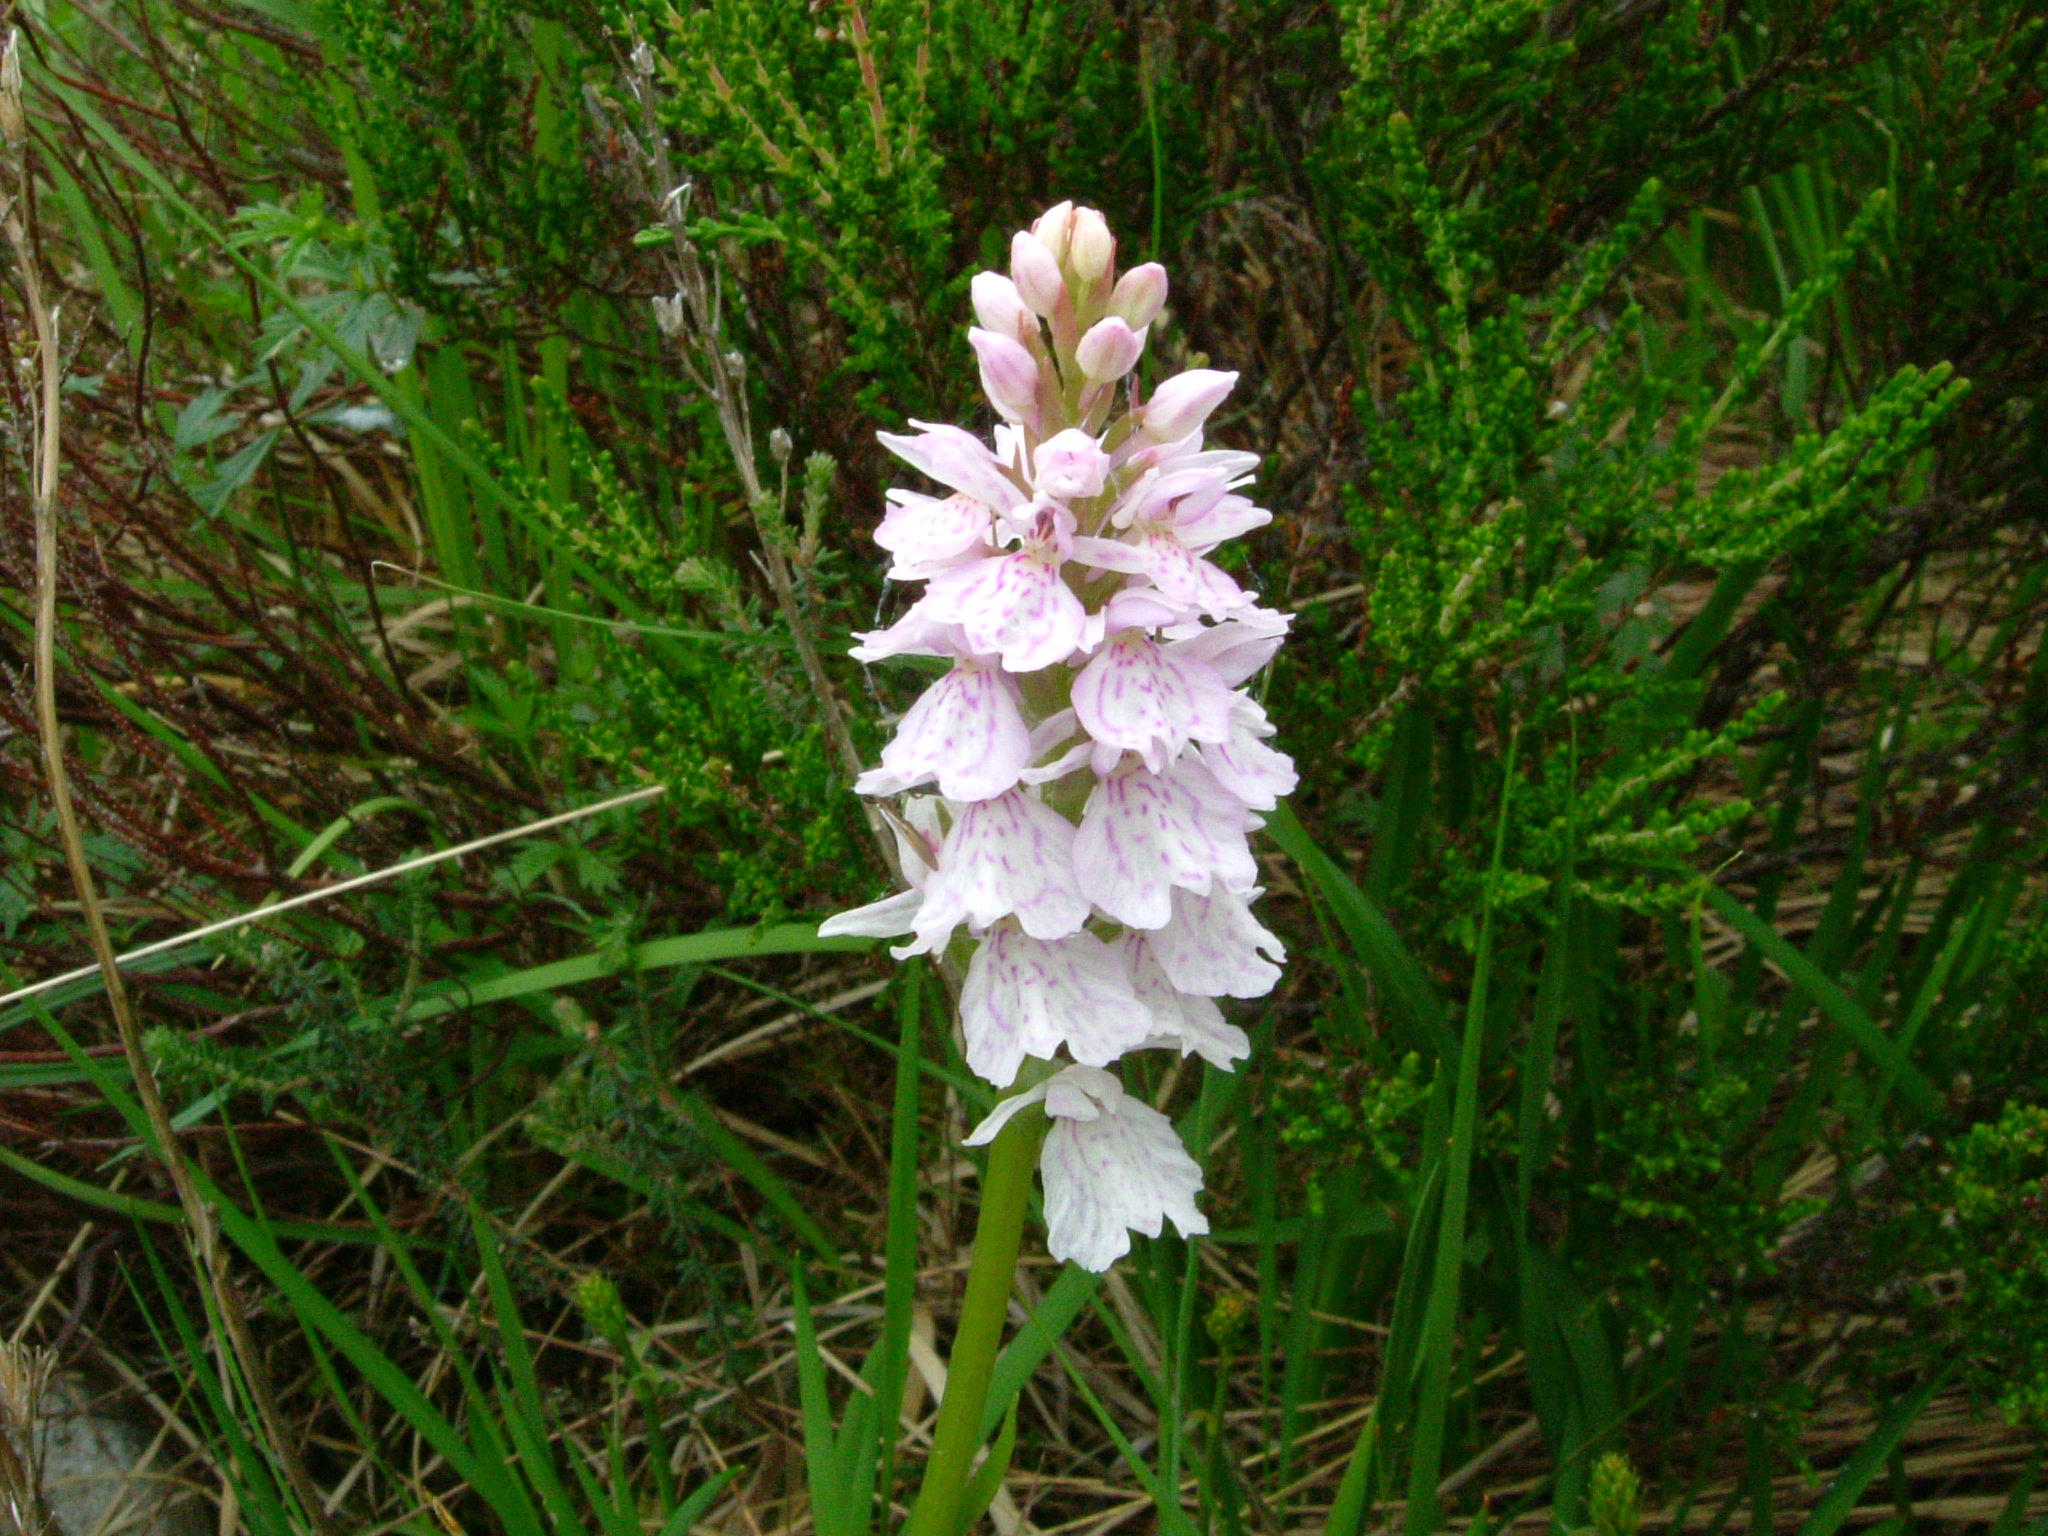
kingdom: Plantae
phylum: Tracheophyta
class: Liliopsida
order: Asparagales
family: Orchidaceae
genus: Dactylorhiza
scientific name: Dactylorhiza maculata
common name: Heath spotted-orchid
